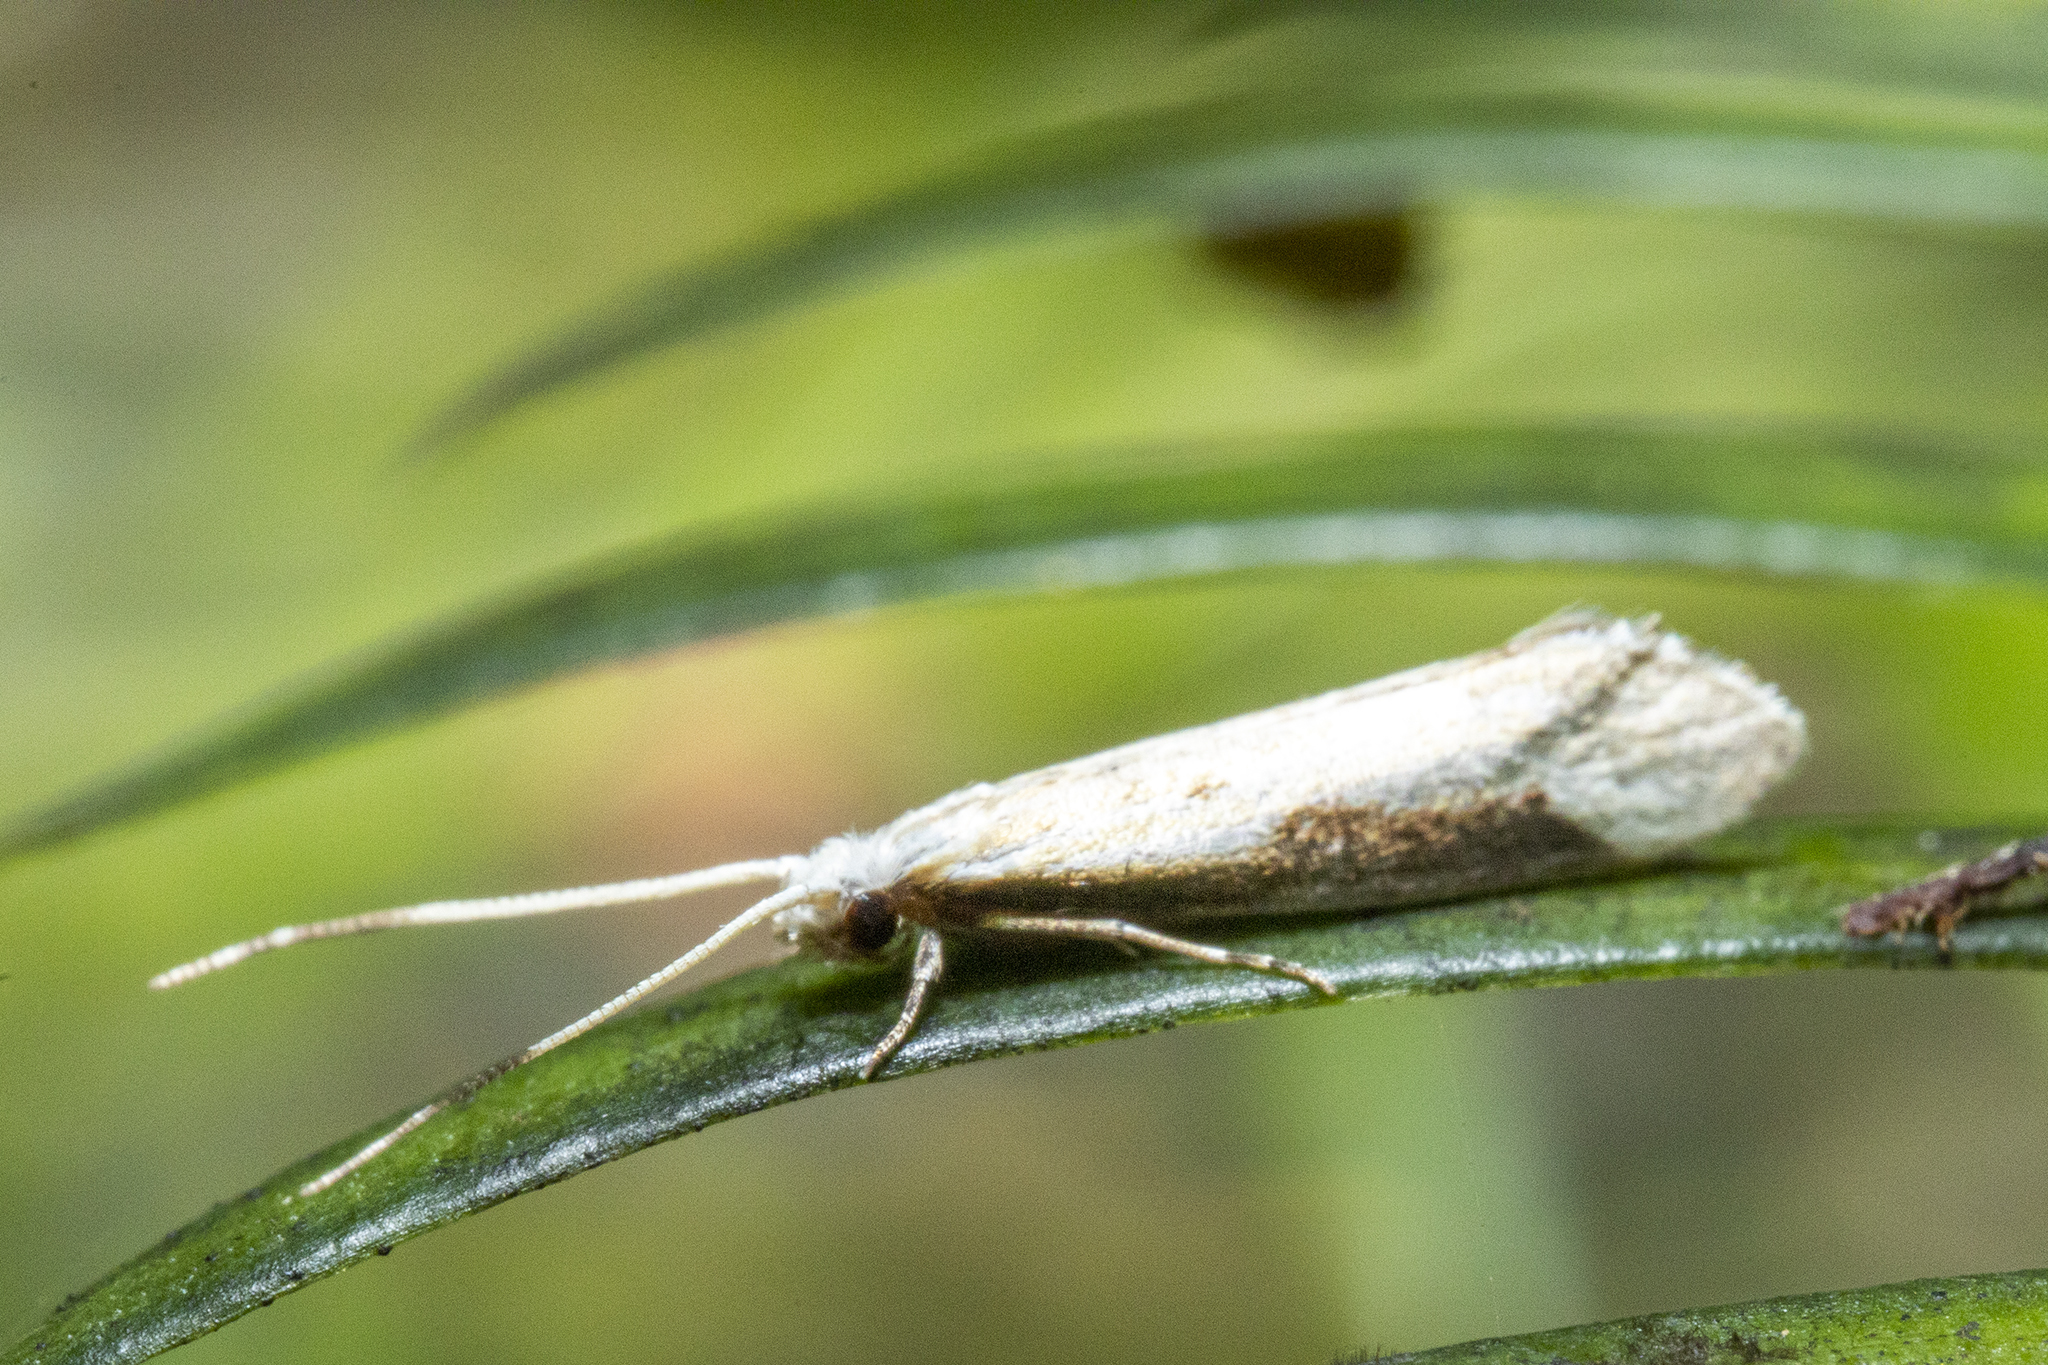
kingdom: Animalia
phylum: Arthropoda
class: Insecta
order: Lepidoptera
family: Tineidae
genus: Sagephora
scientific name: Sagephora phortegella
